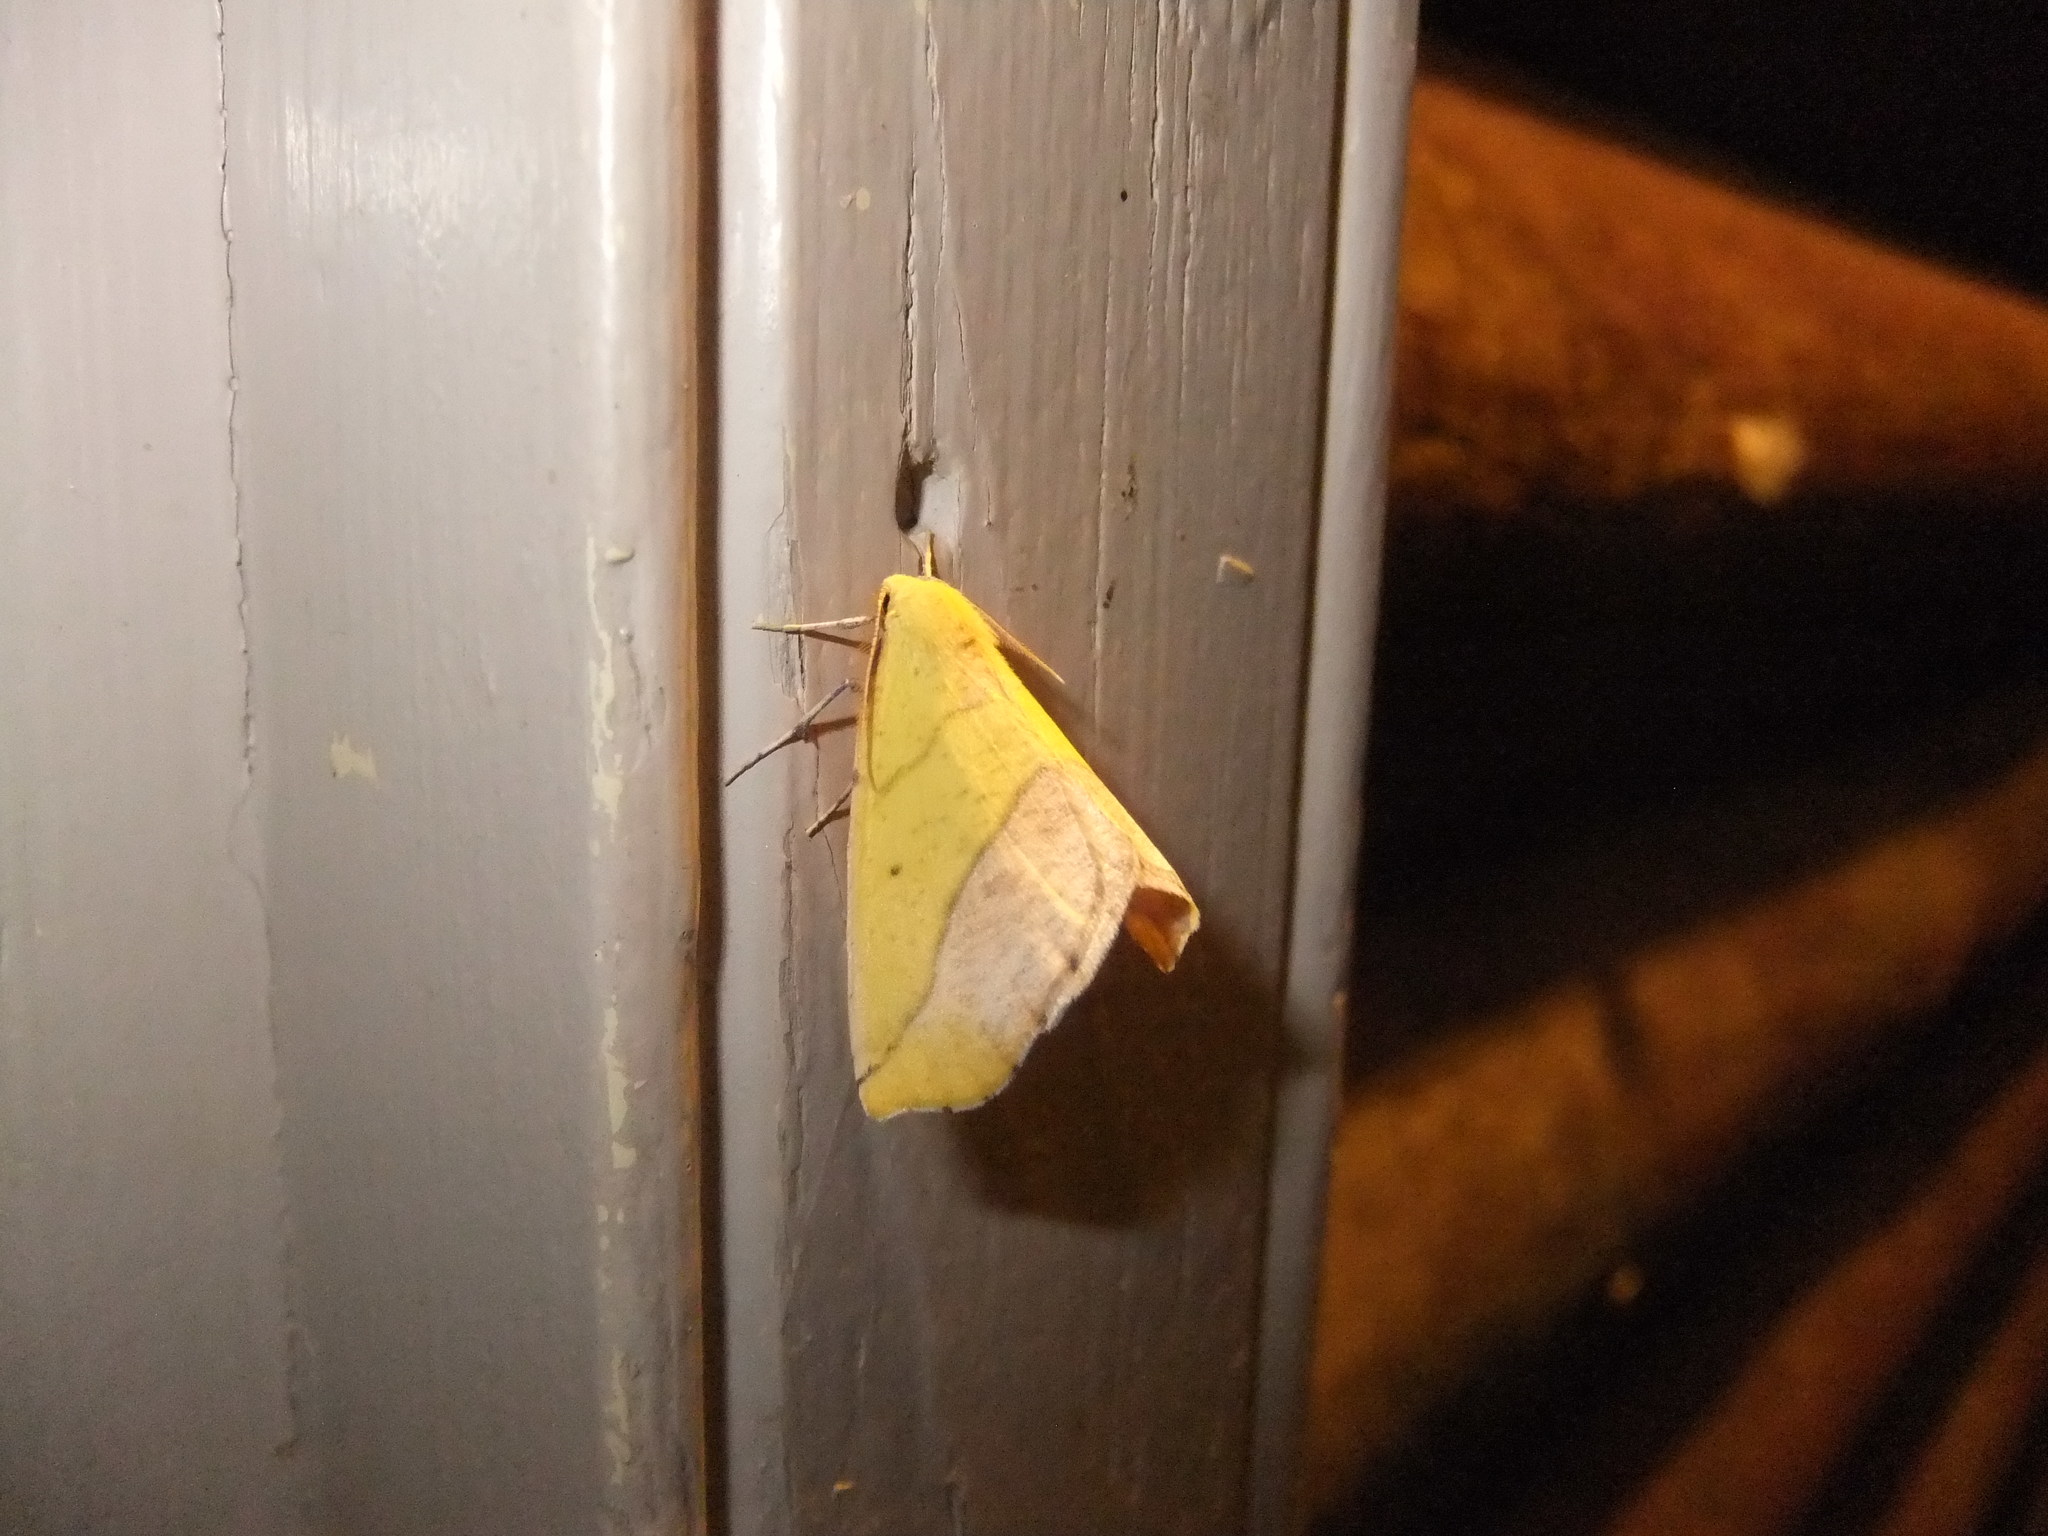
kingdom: Animalia
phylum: Arthropoda
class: Insecta
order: Lepidoptera
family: Geometridae
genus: Sicya
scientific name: Sicya macularia
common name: Sharp-lined yellow
